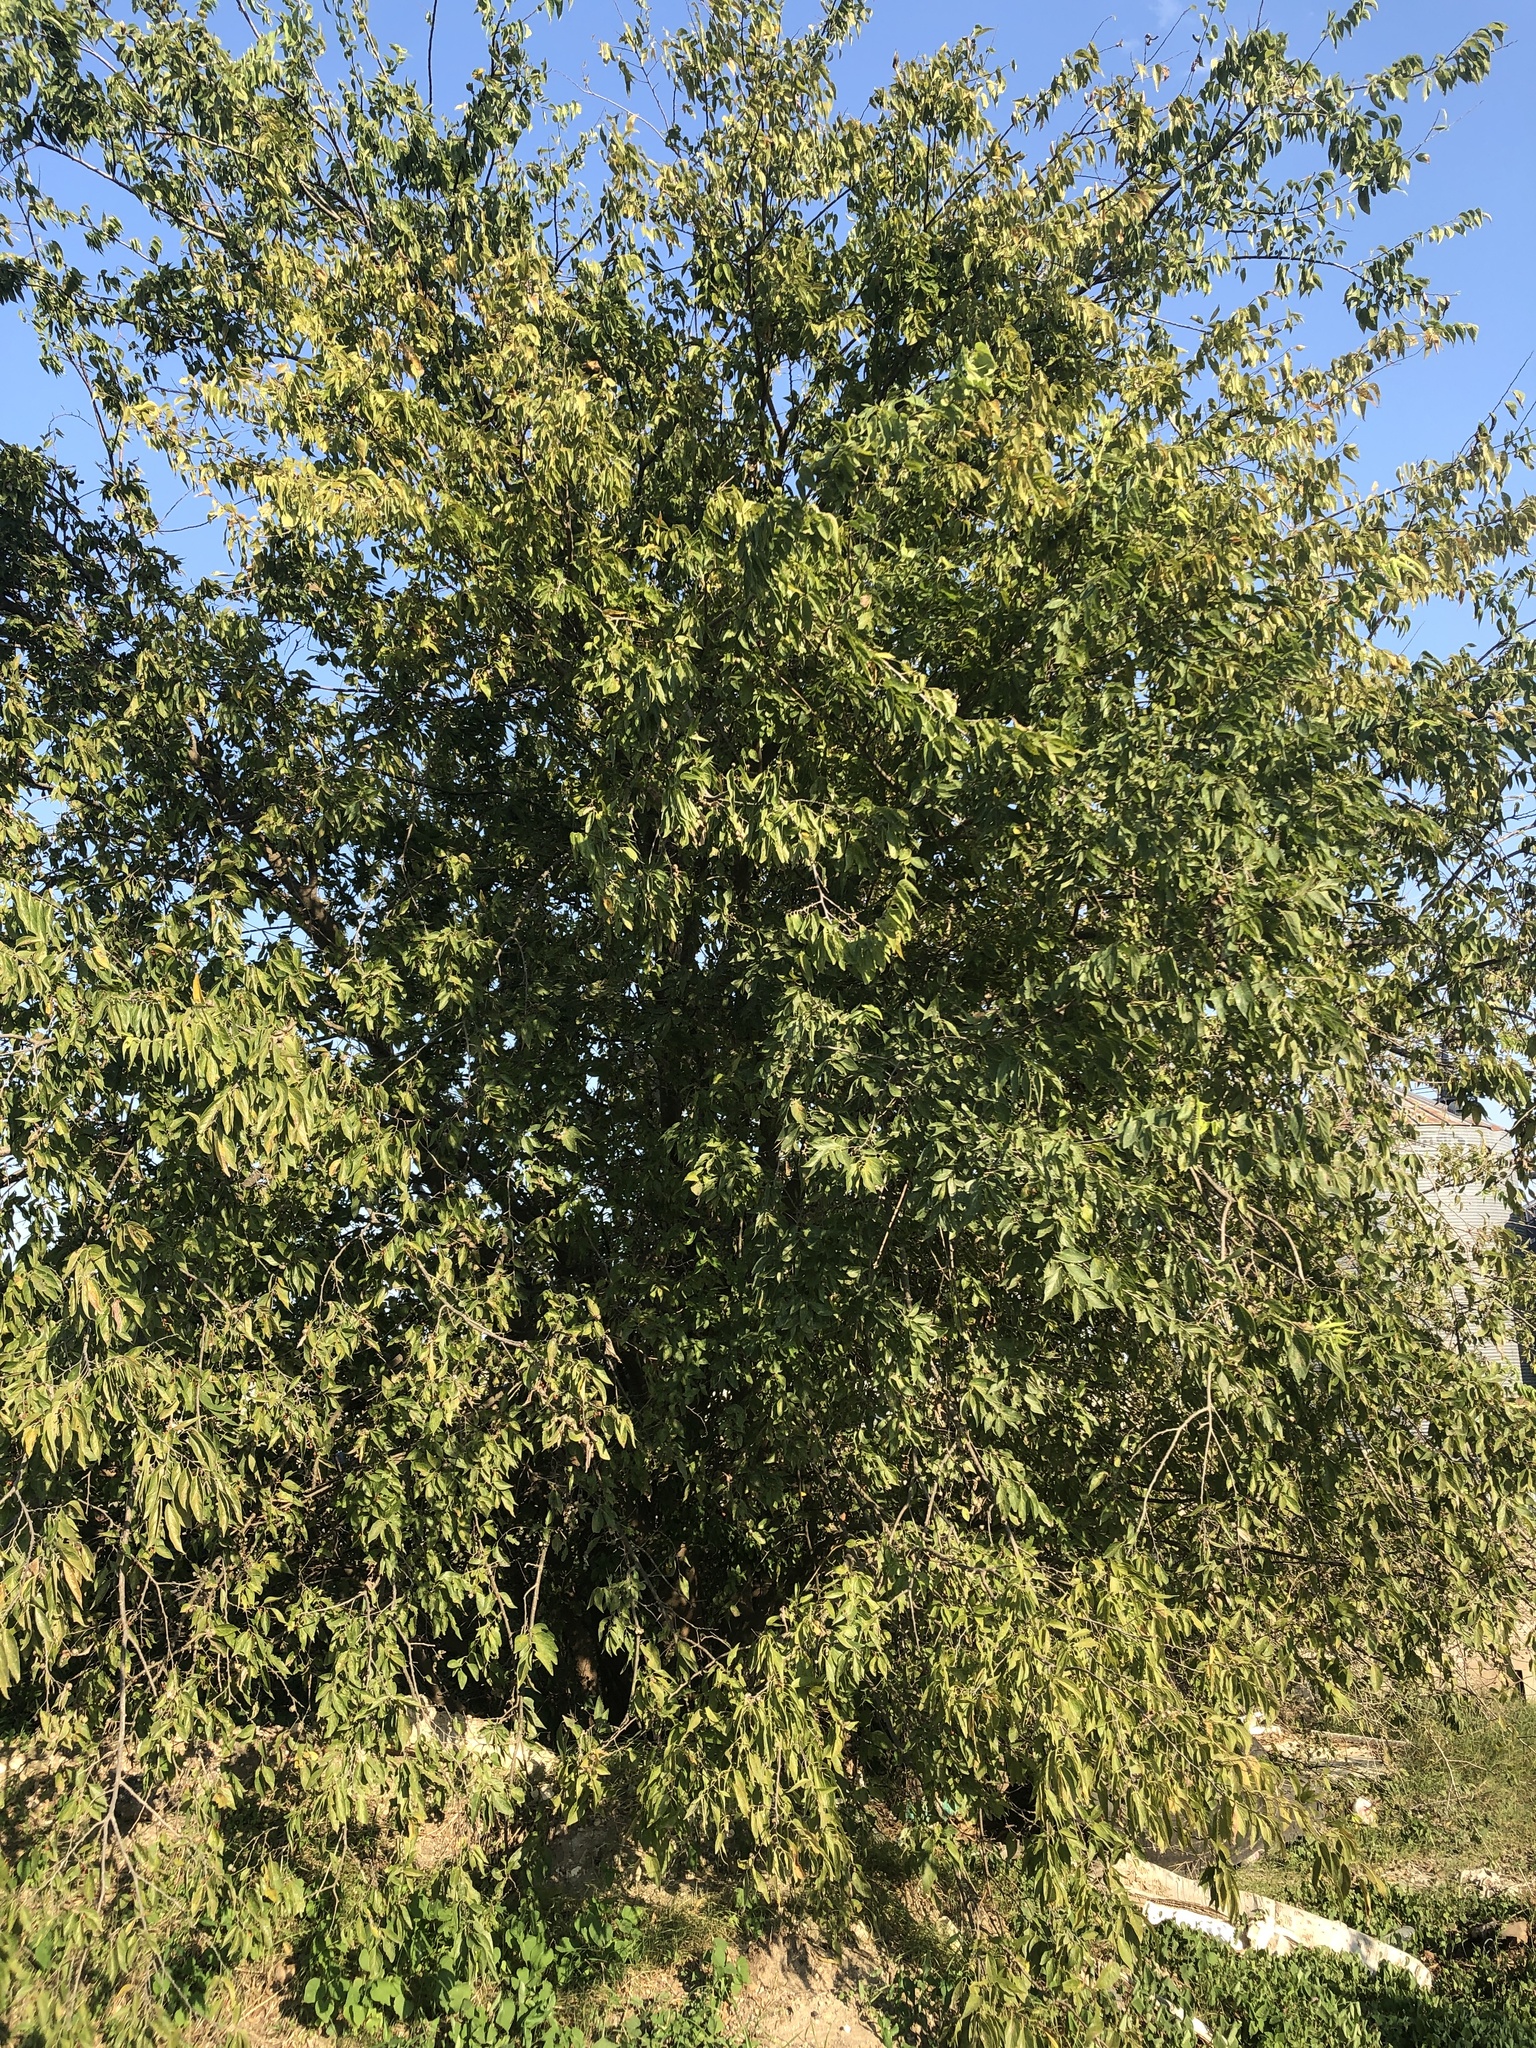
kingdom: Plantae
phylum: Tracheophyta
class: Magnoliopsida
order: Rosales
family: Cannabaceae
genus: Celtis
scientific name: Celtis laevigata
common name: Sugarberry
